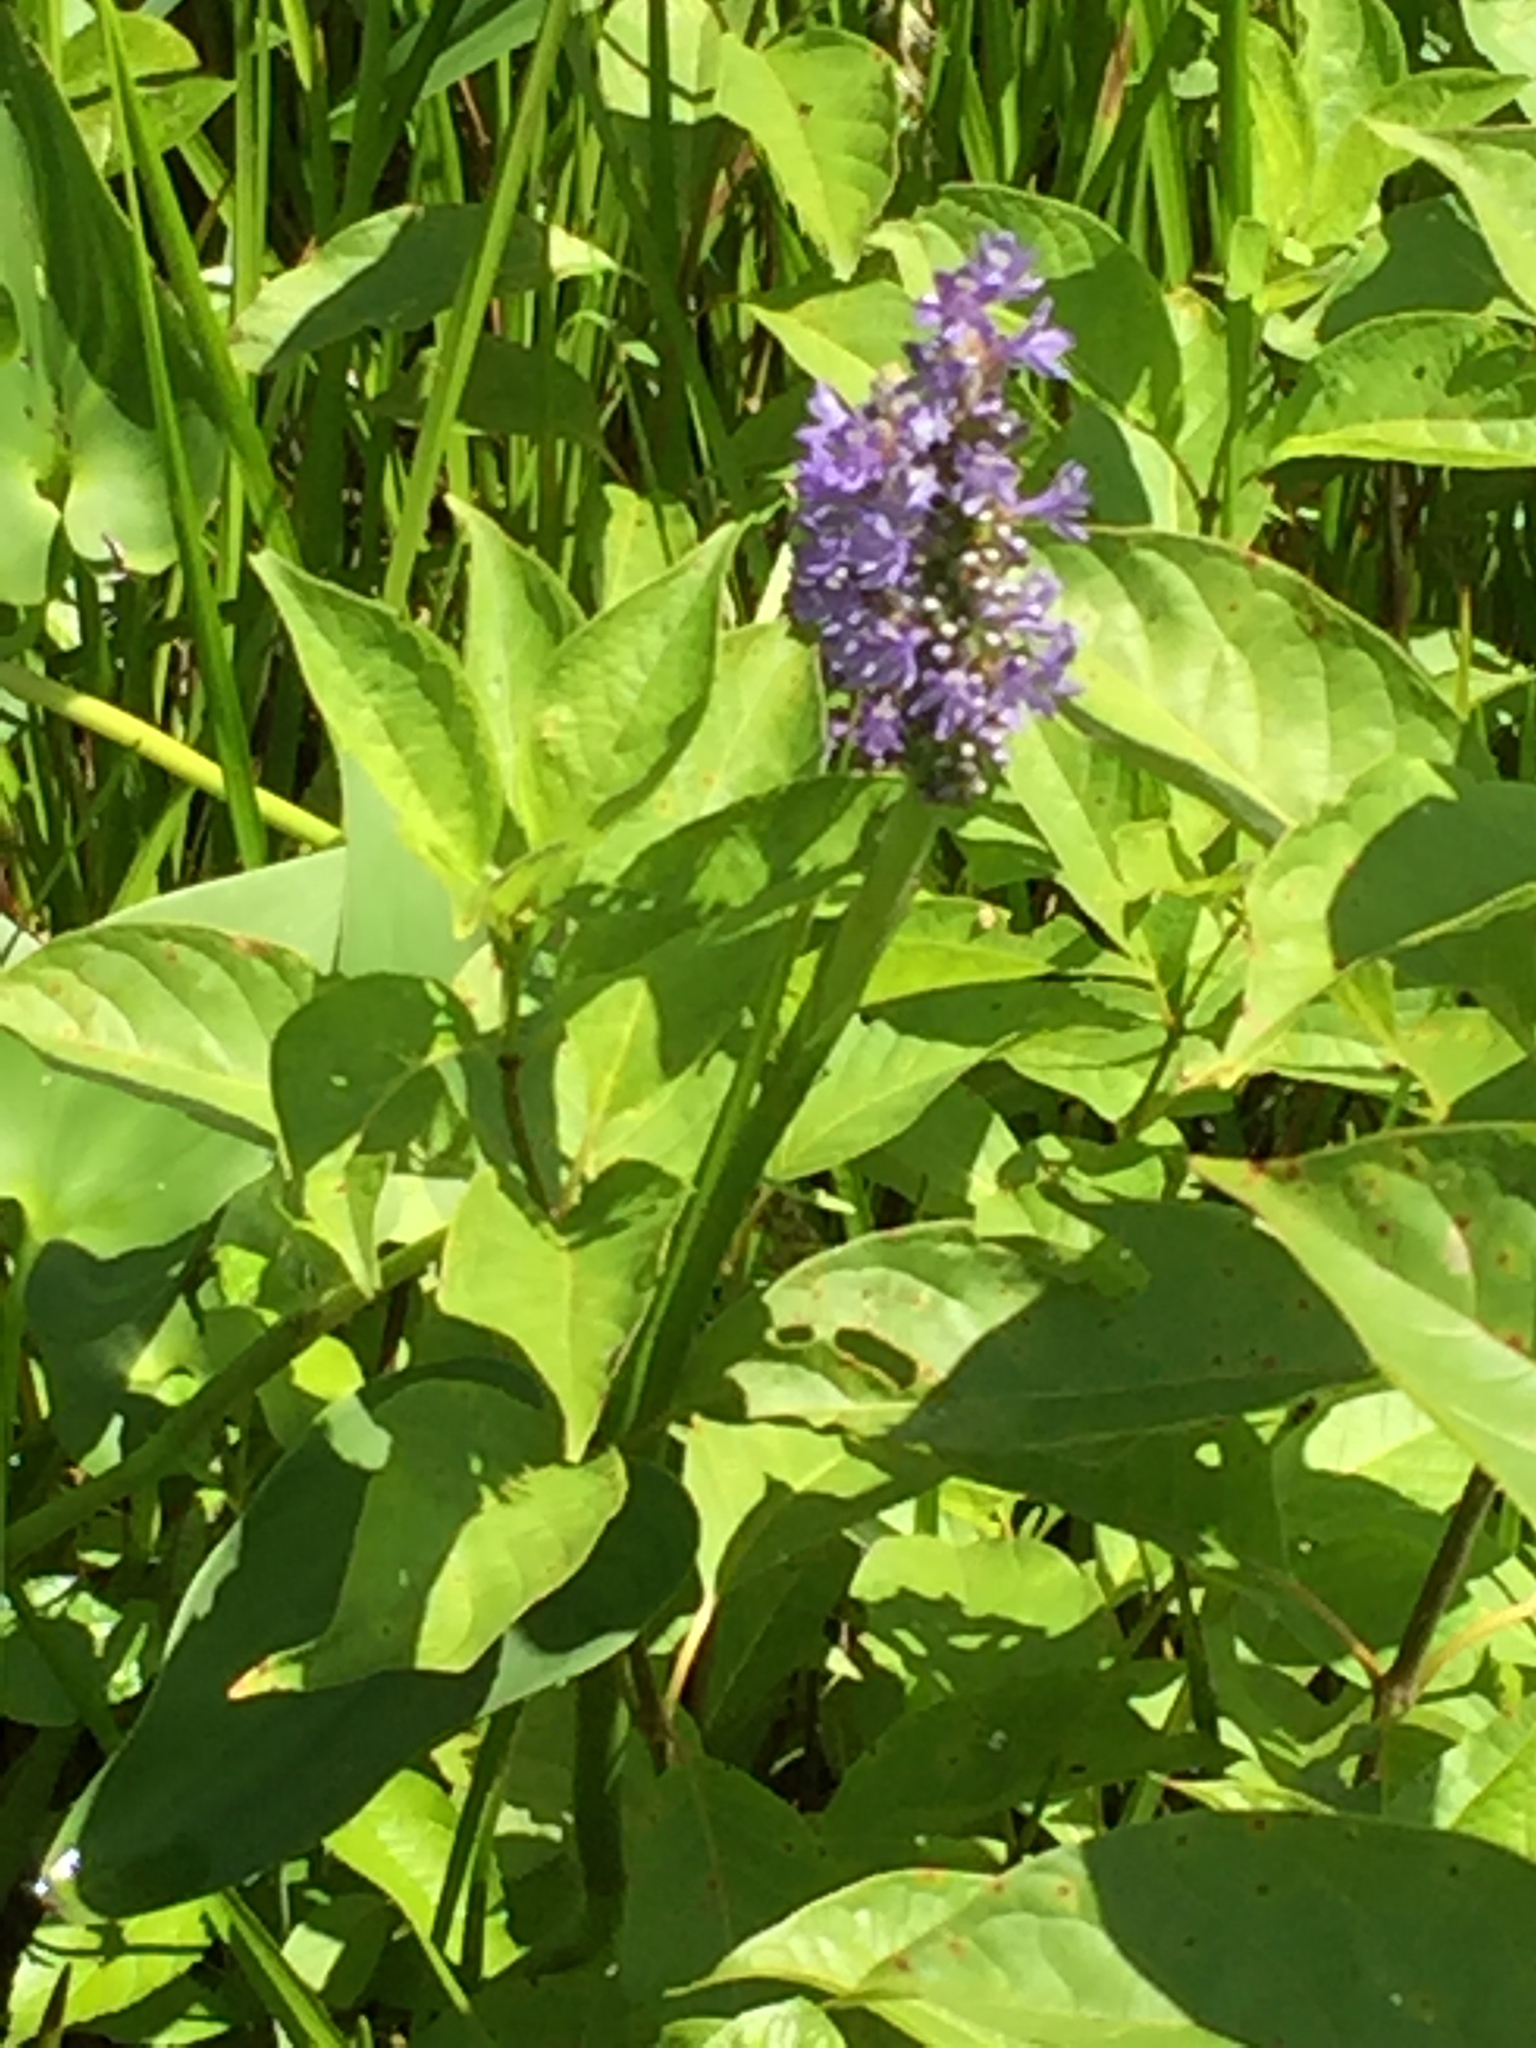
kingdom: Plantae
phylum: Tracheophyta
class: Liliopsida
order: Commelinales
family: Pontederiaceae
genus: Pontederia
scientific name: Pontederia cordata
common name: Pickerelweed
